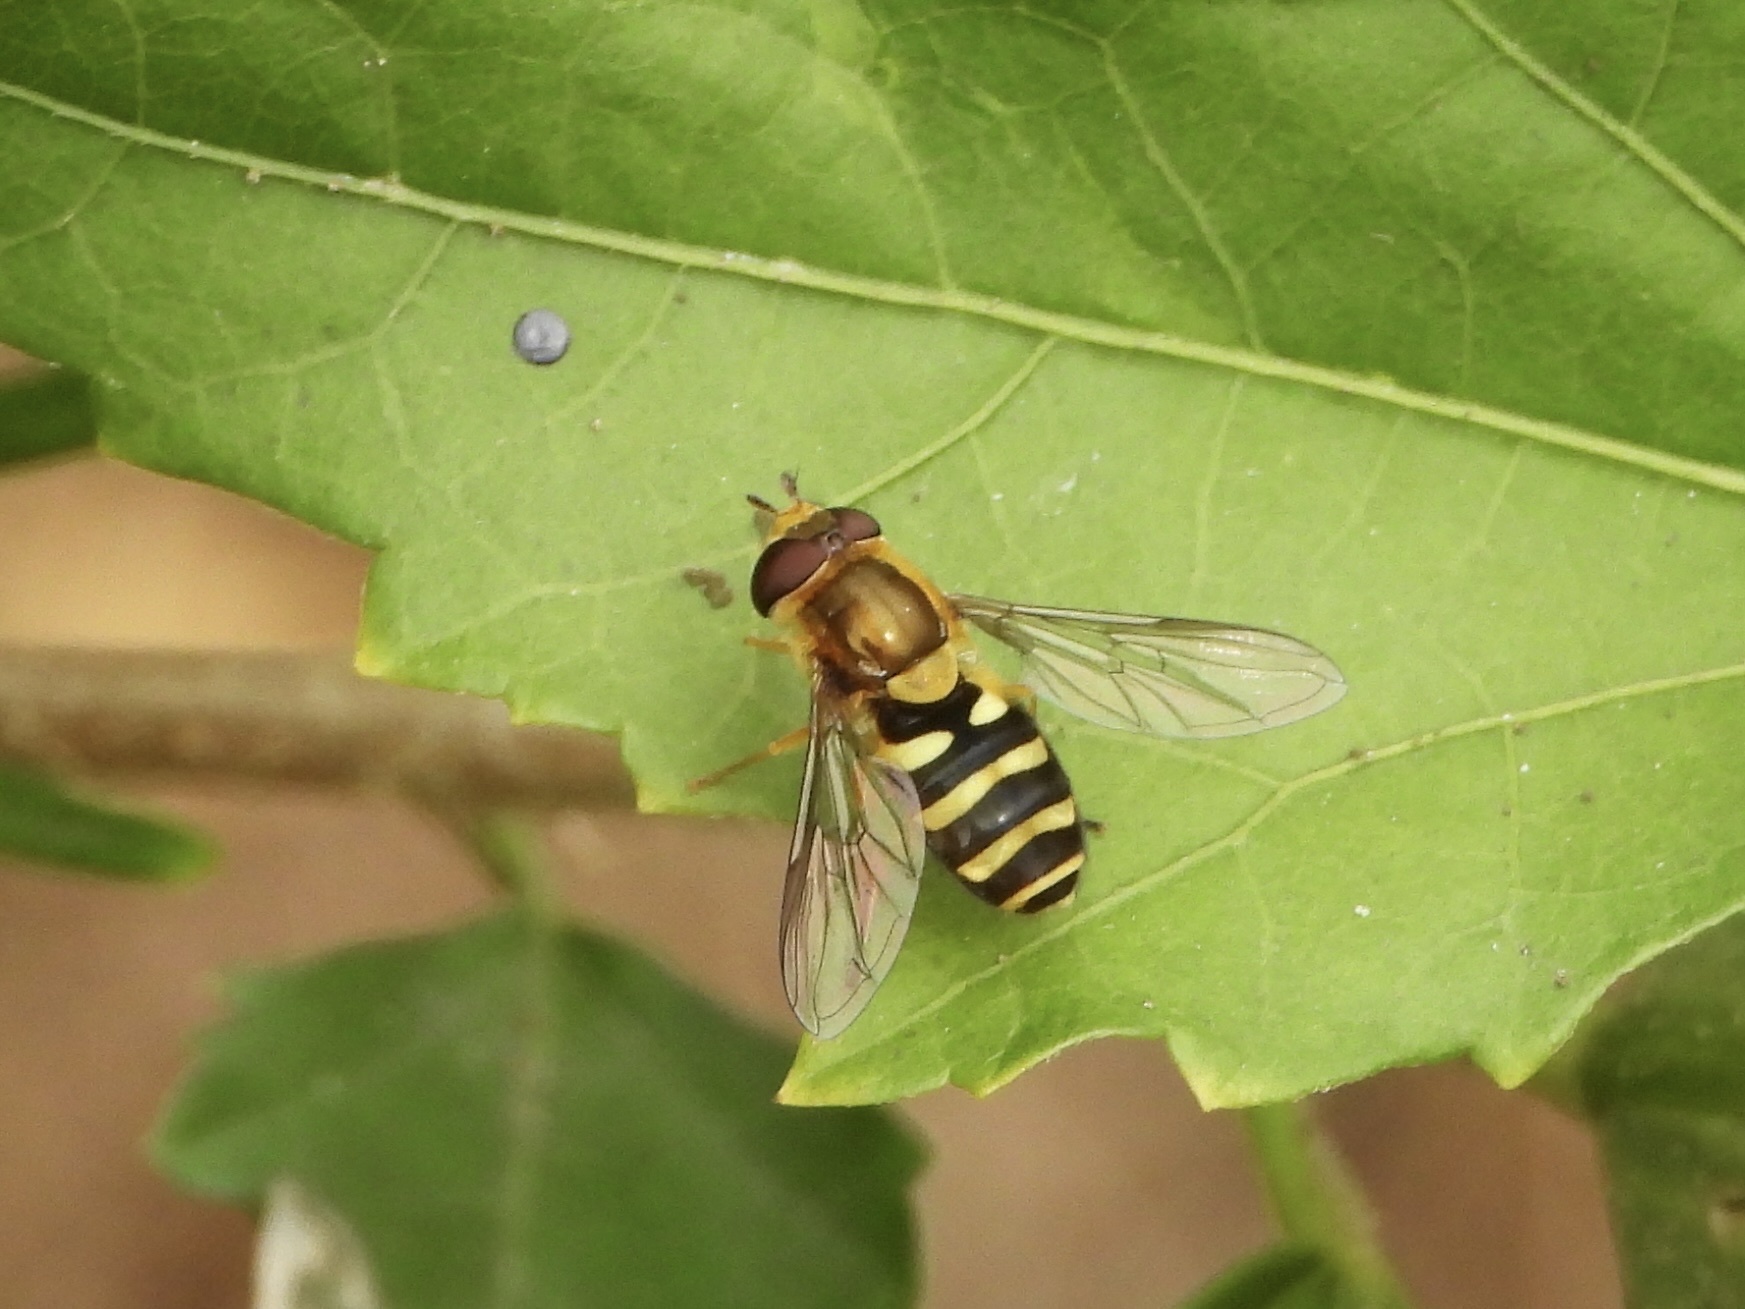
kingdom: Animalia
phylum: Arthropoda
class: Insecta
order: Diptera
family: Syrphidae
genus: Syrphus
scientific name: Syrphus opinator
